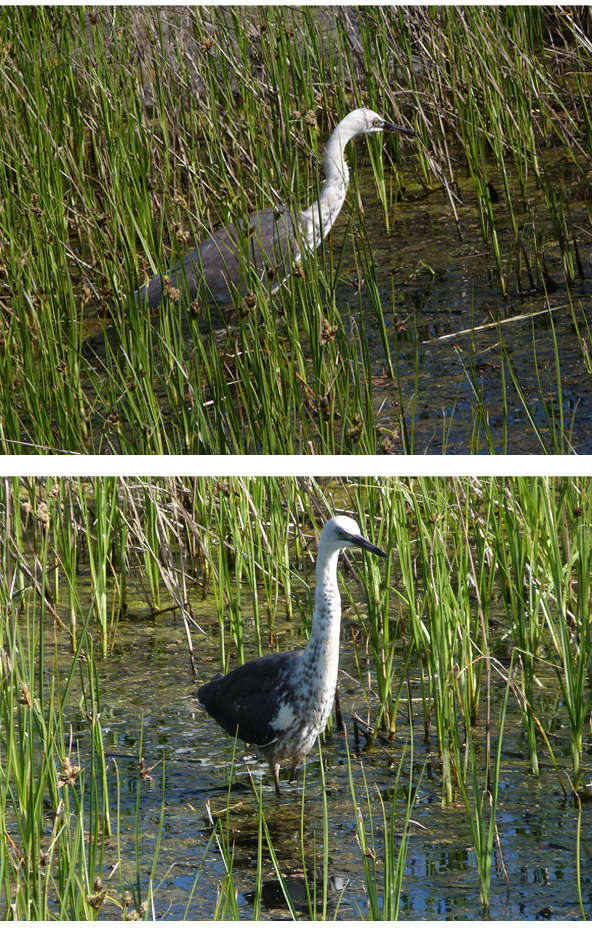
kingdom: Animalia
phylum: Chordata
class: Aves
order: Pelecaniformes
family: Ardeidae
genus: Ardea
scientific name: Ardea pacifica
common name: White-necked heron
